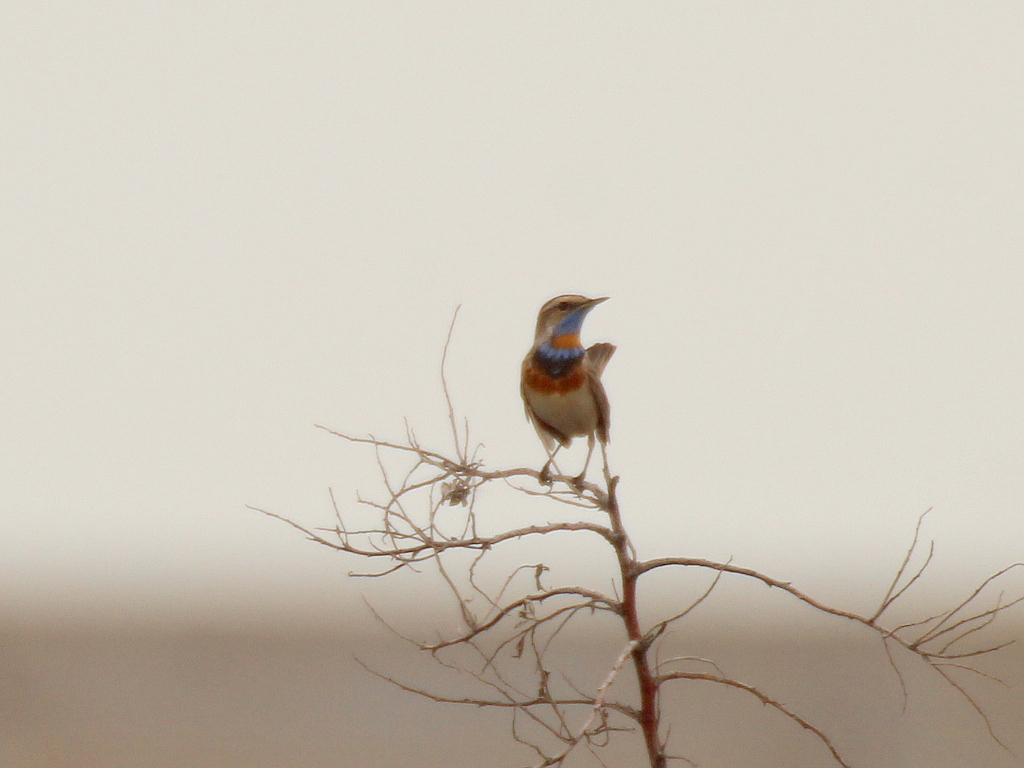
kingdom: Animalia
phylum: Chordata
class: Aves
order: Passeriformes
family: Muscicapidae
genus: Luscinia
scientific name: Luscinia svecica
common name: Bluethroat
